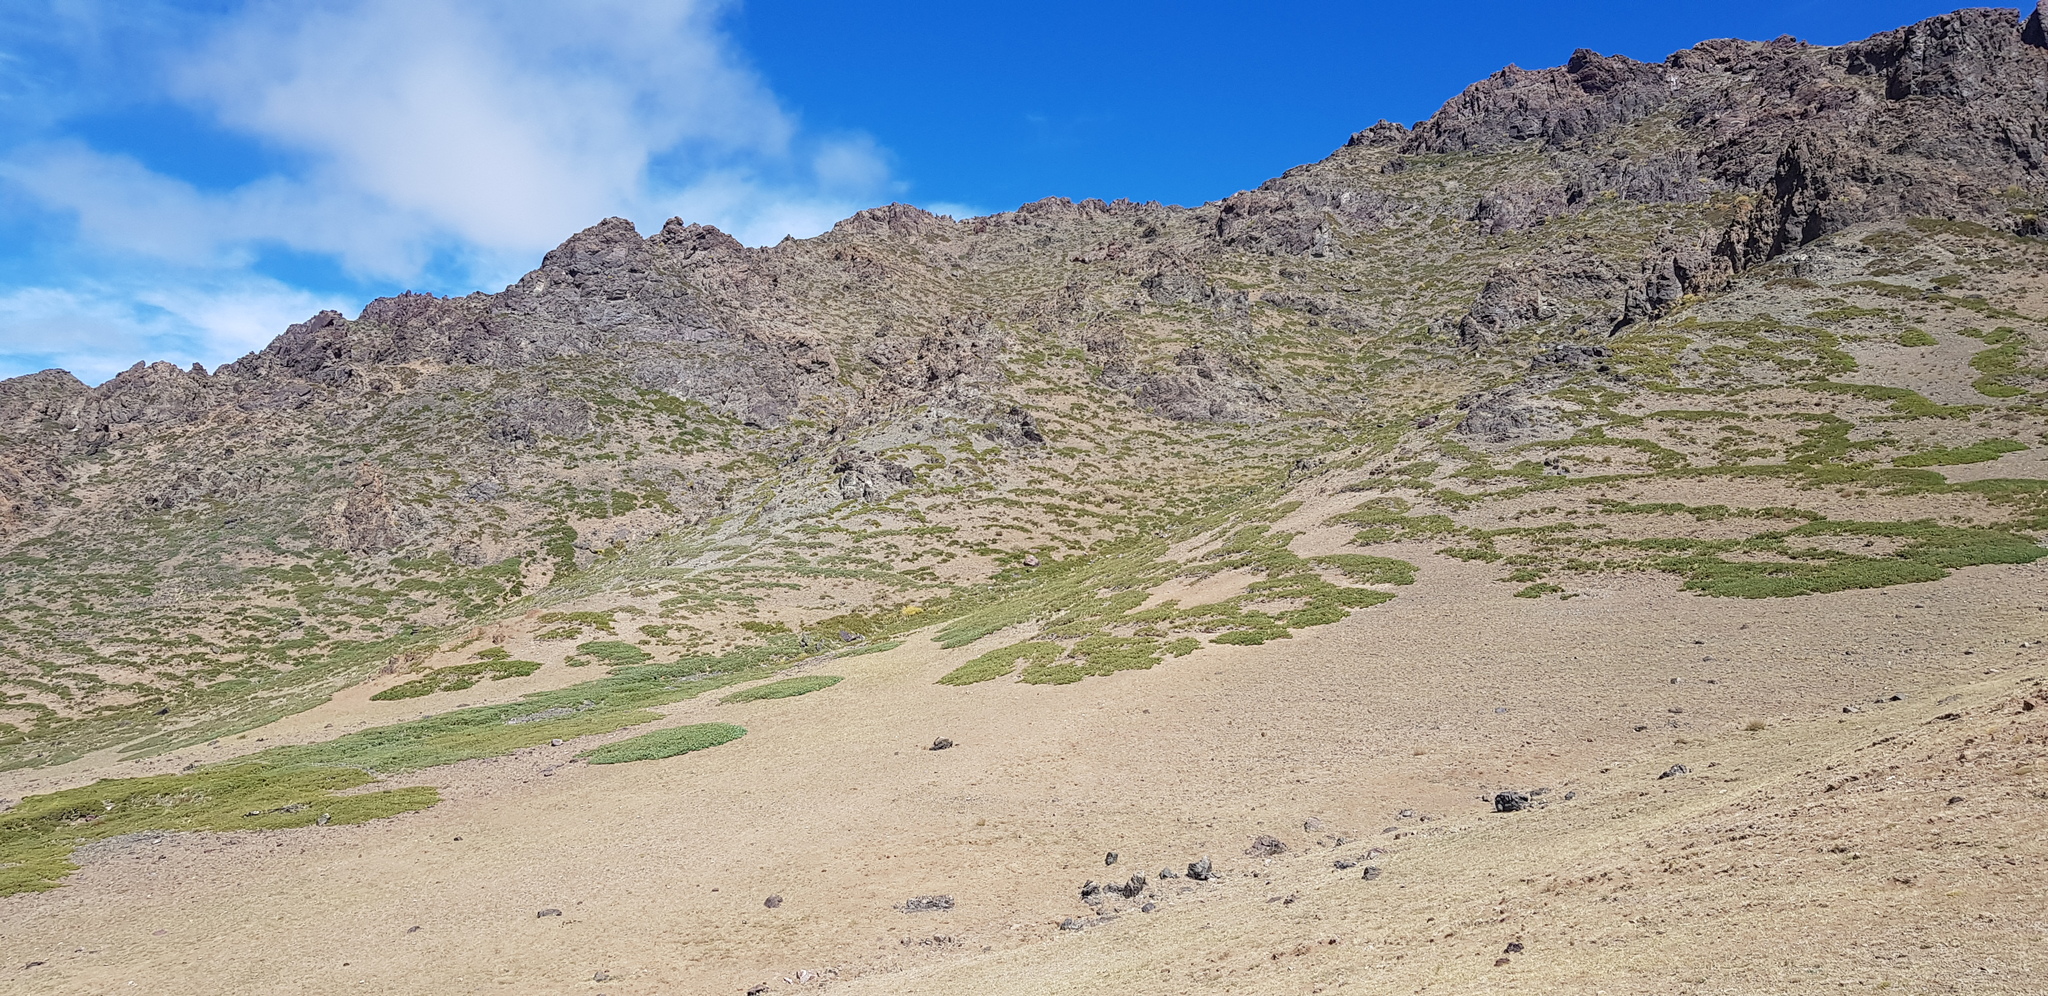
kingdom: Plantae
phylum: Tracheophyta
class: Pinopsida
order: Pinales
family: Cupressaceae
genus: Juniperus
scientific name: Juniperus sabina
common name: Savin
